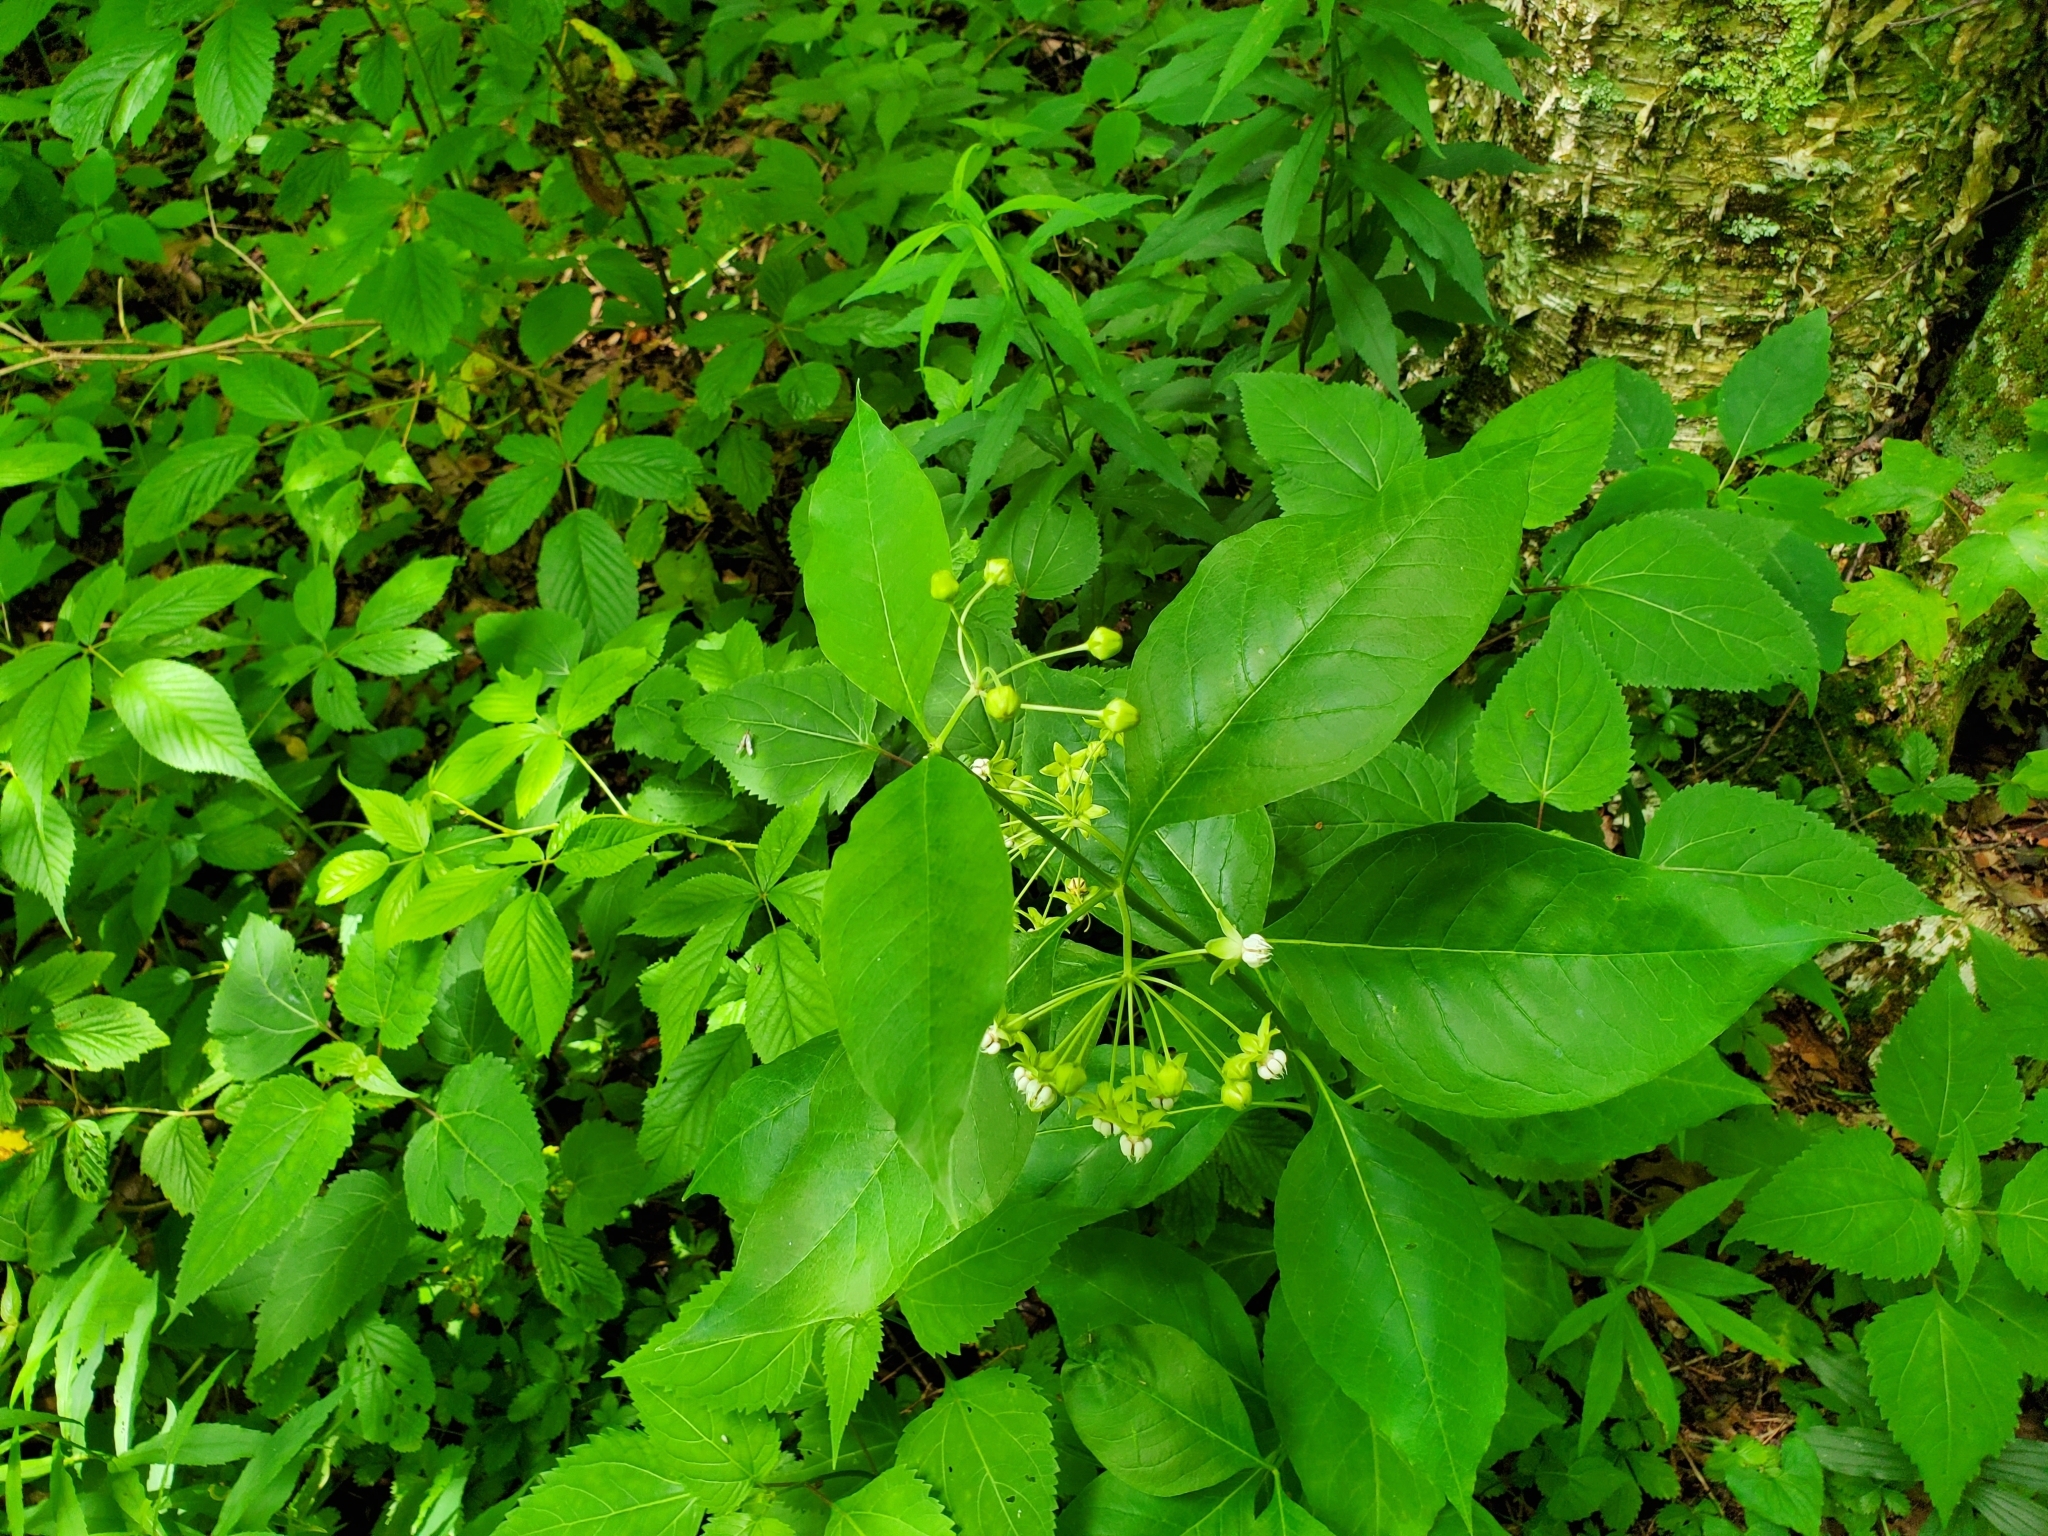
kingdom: Plantae
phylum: Tracheophyta
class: Magnoliopsida
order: Gentianales
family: Apocynaceae
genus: Asclepias
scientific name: Asclepias exaltata
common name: Poke milkweed
